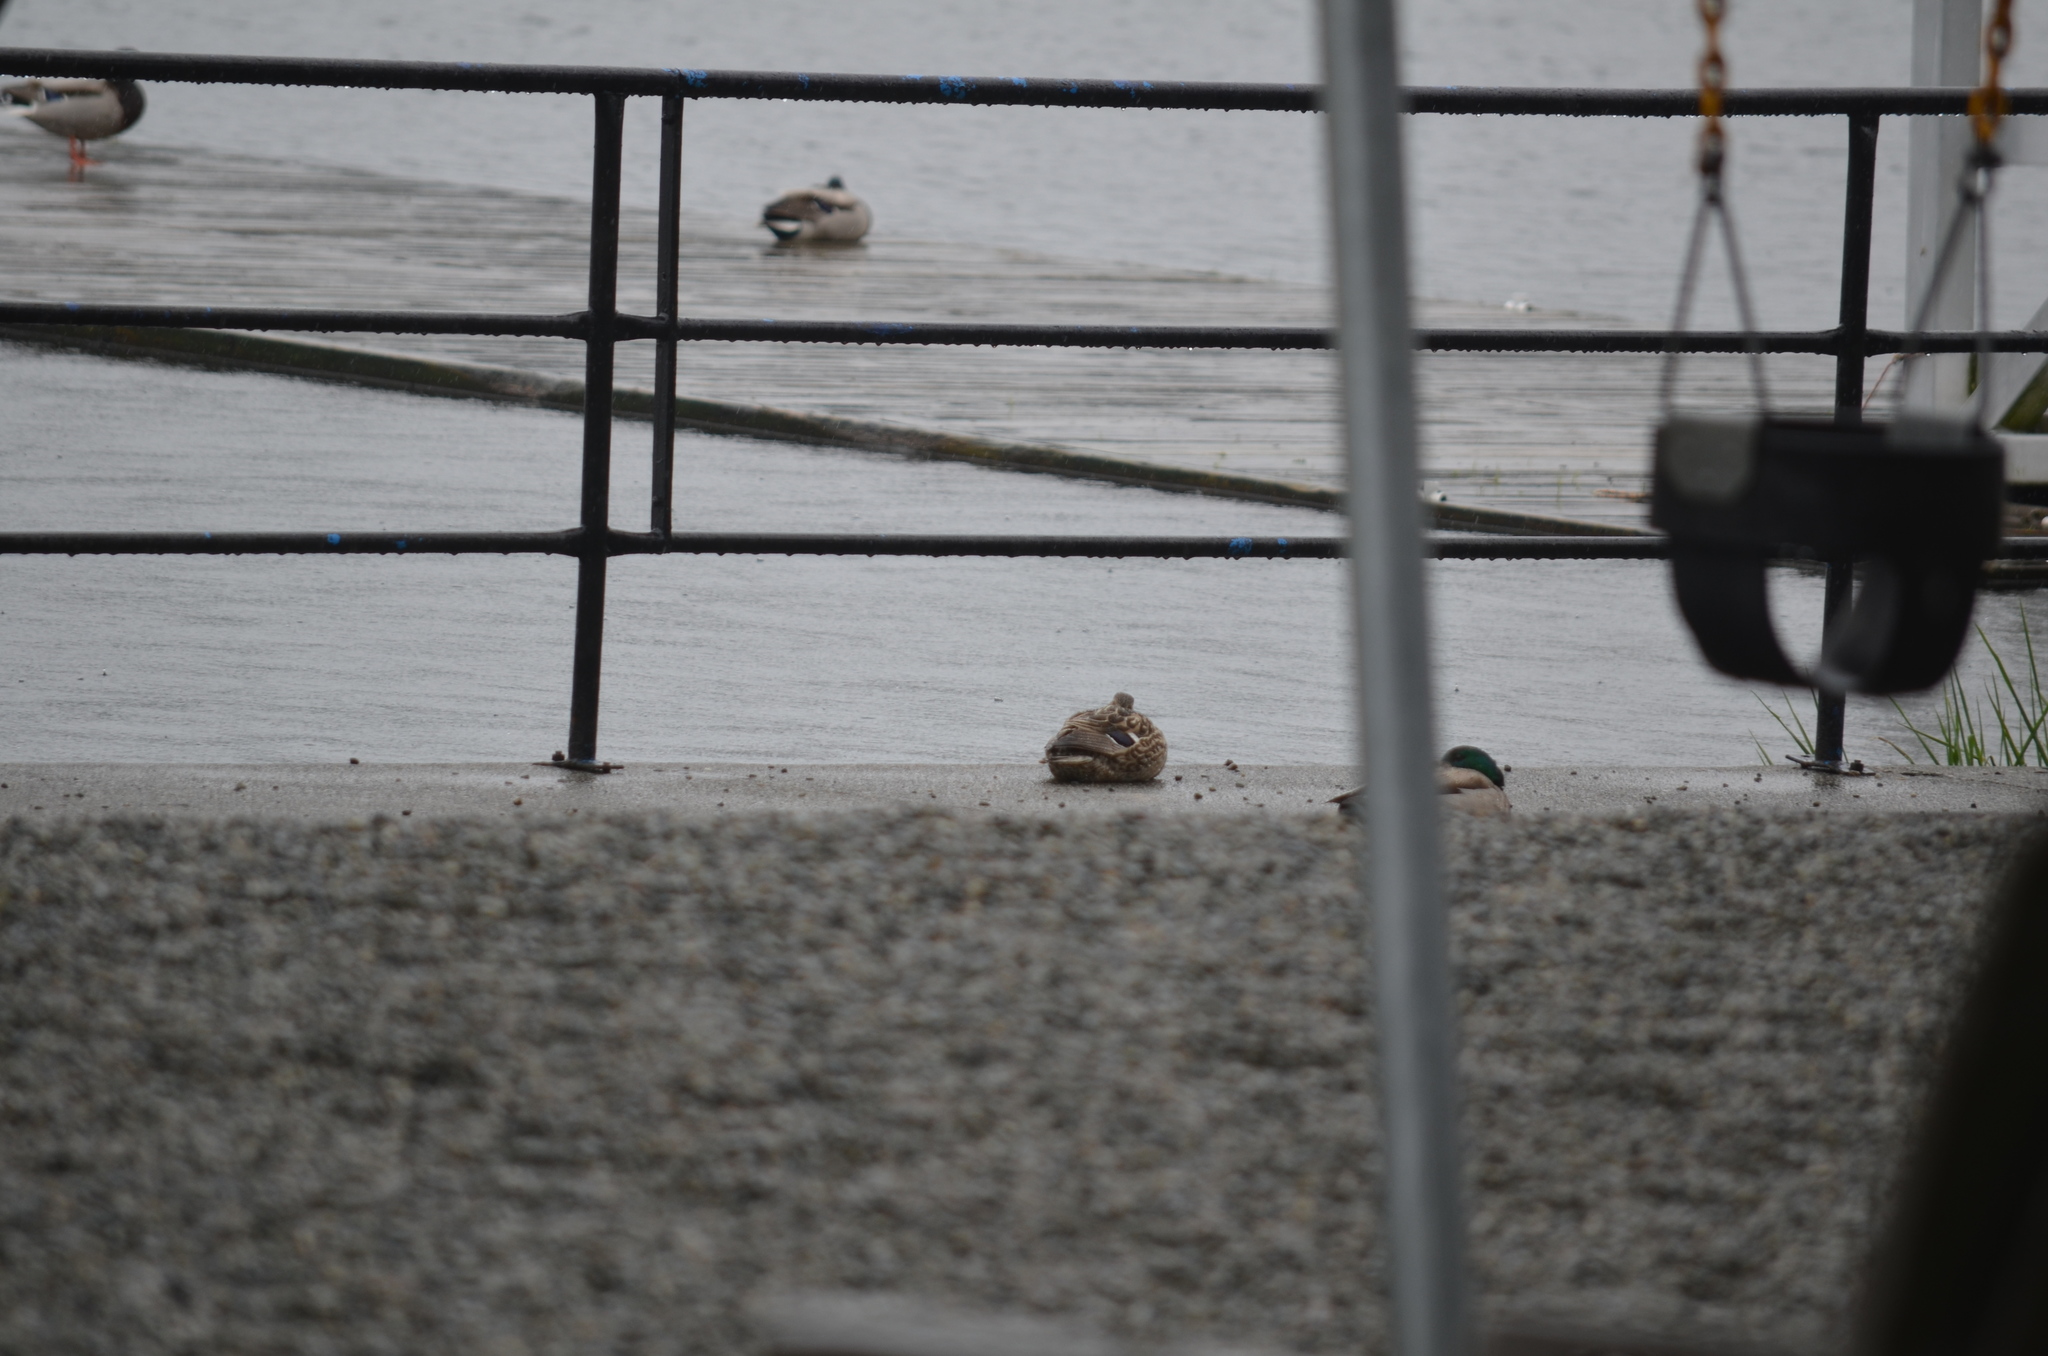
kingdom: Animalia
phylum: Chordata
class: Aves
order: Anseriformes
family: Anatidae
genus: Anas
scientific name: Anas platyrhynchos
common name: Mallard
